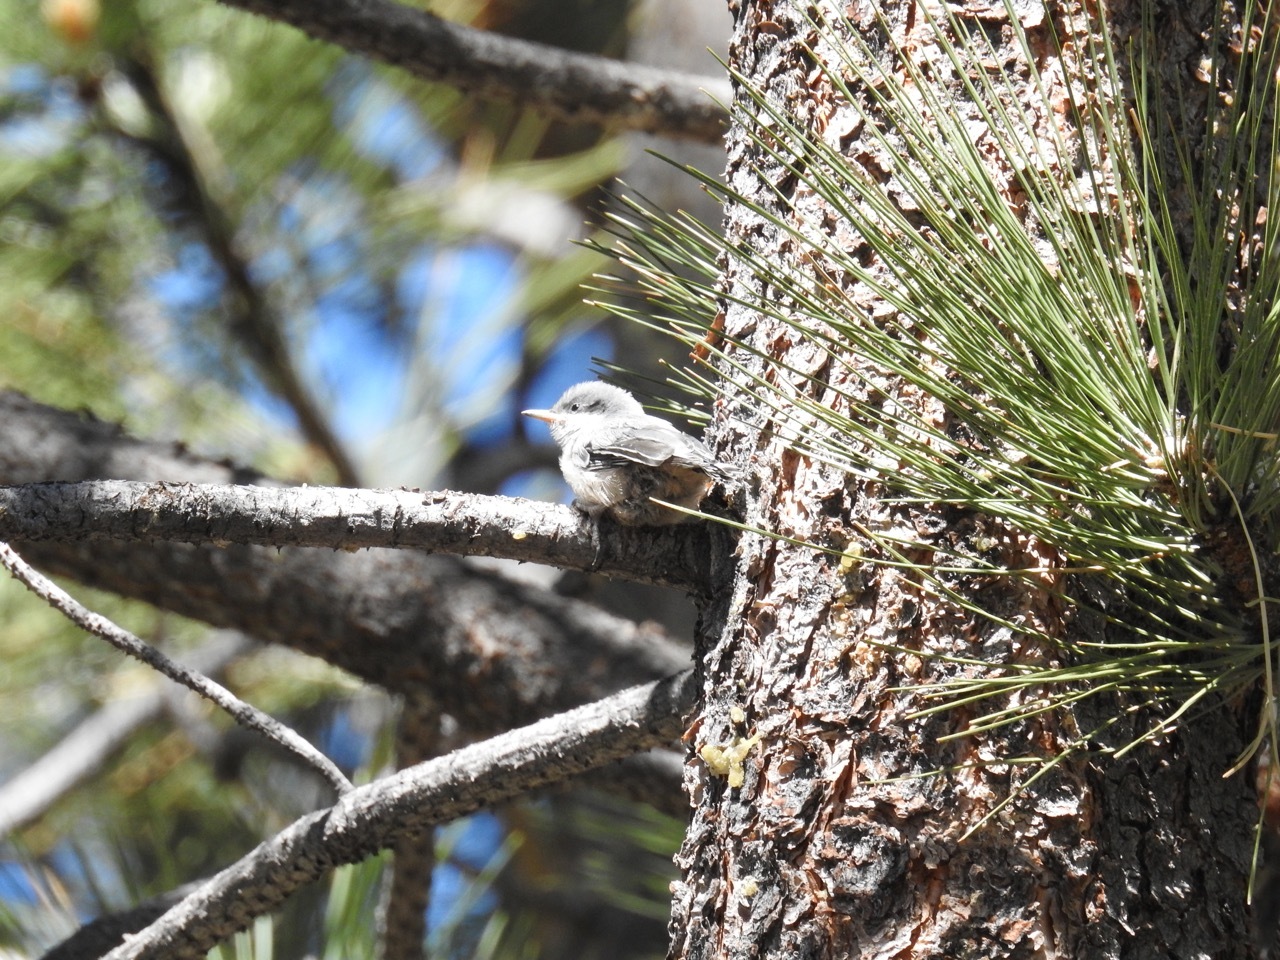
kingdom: Animalia
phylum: Chordata
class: Aves
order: Passeriformes
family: Sittidae
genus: Sitta
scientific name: Sitta pygmaea
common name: Pygmy nuthatch
